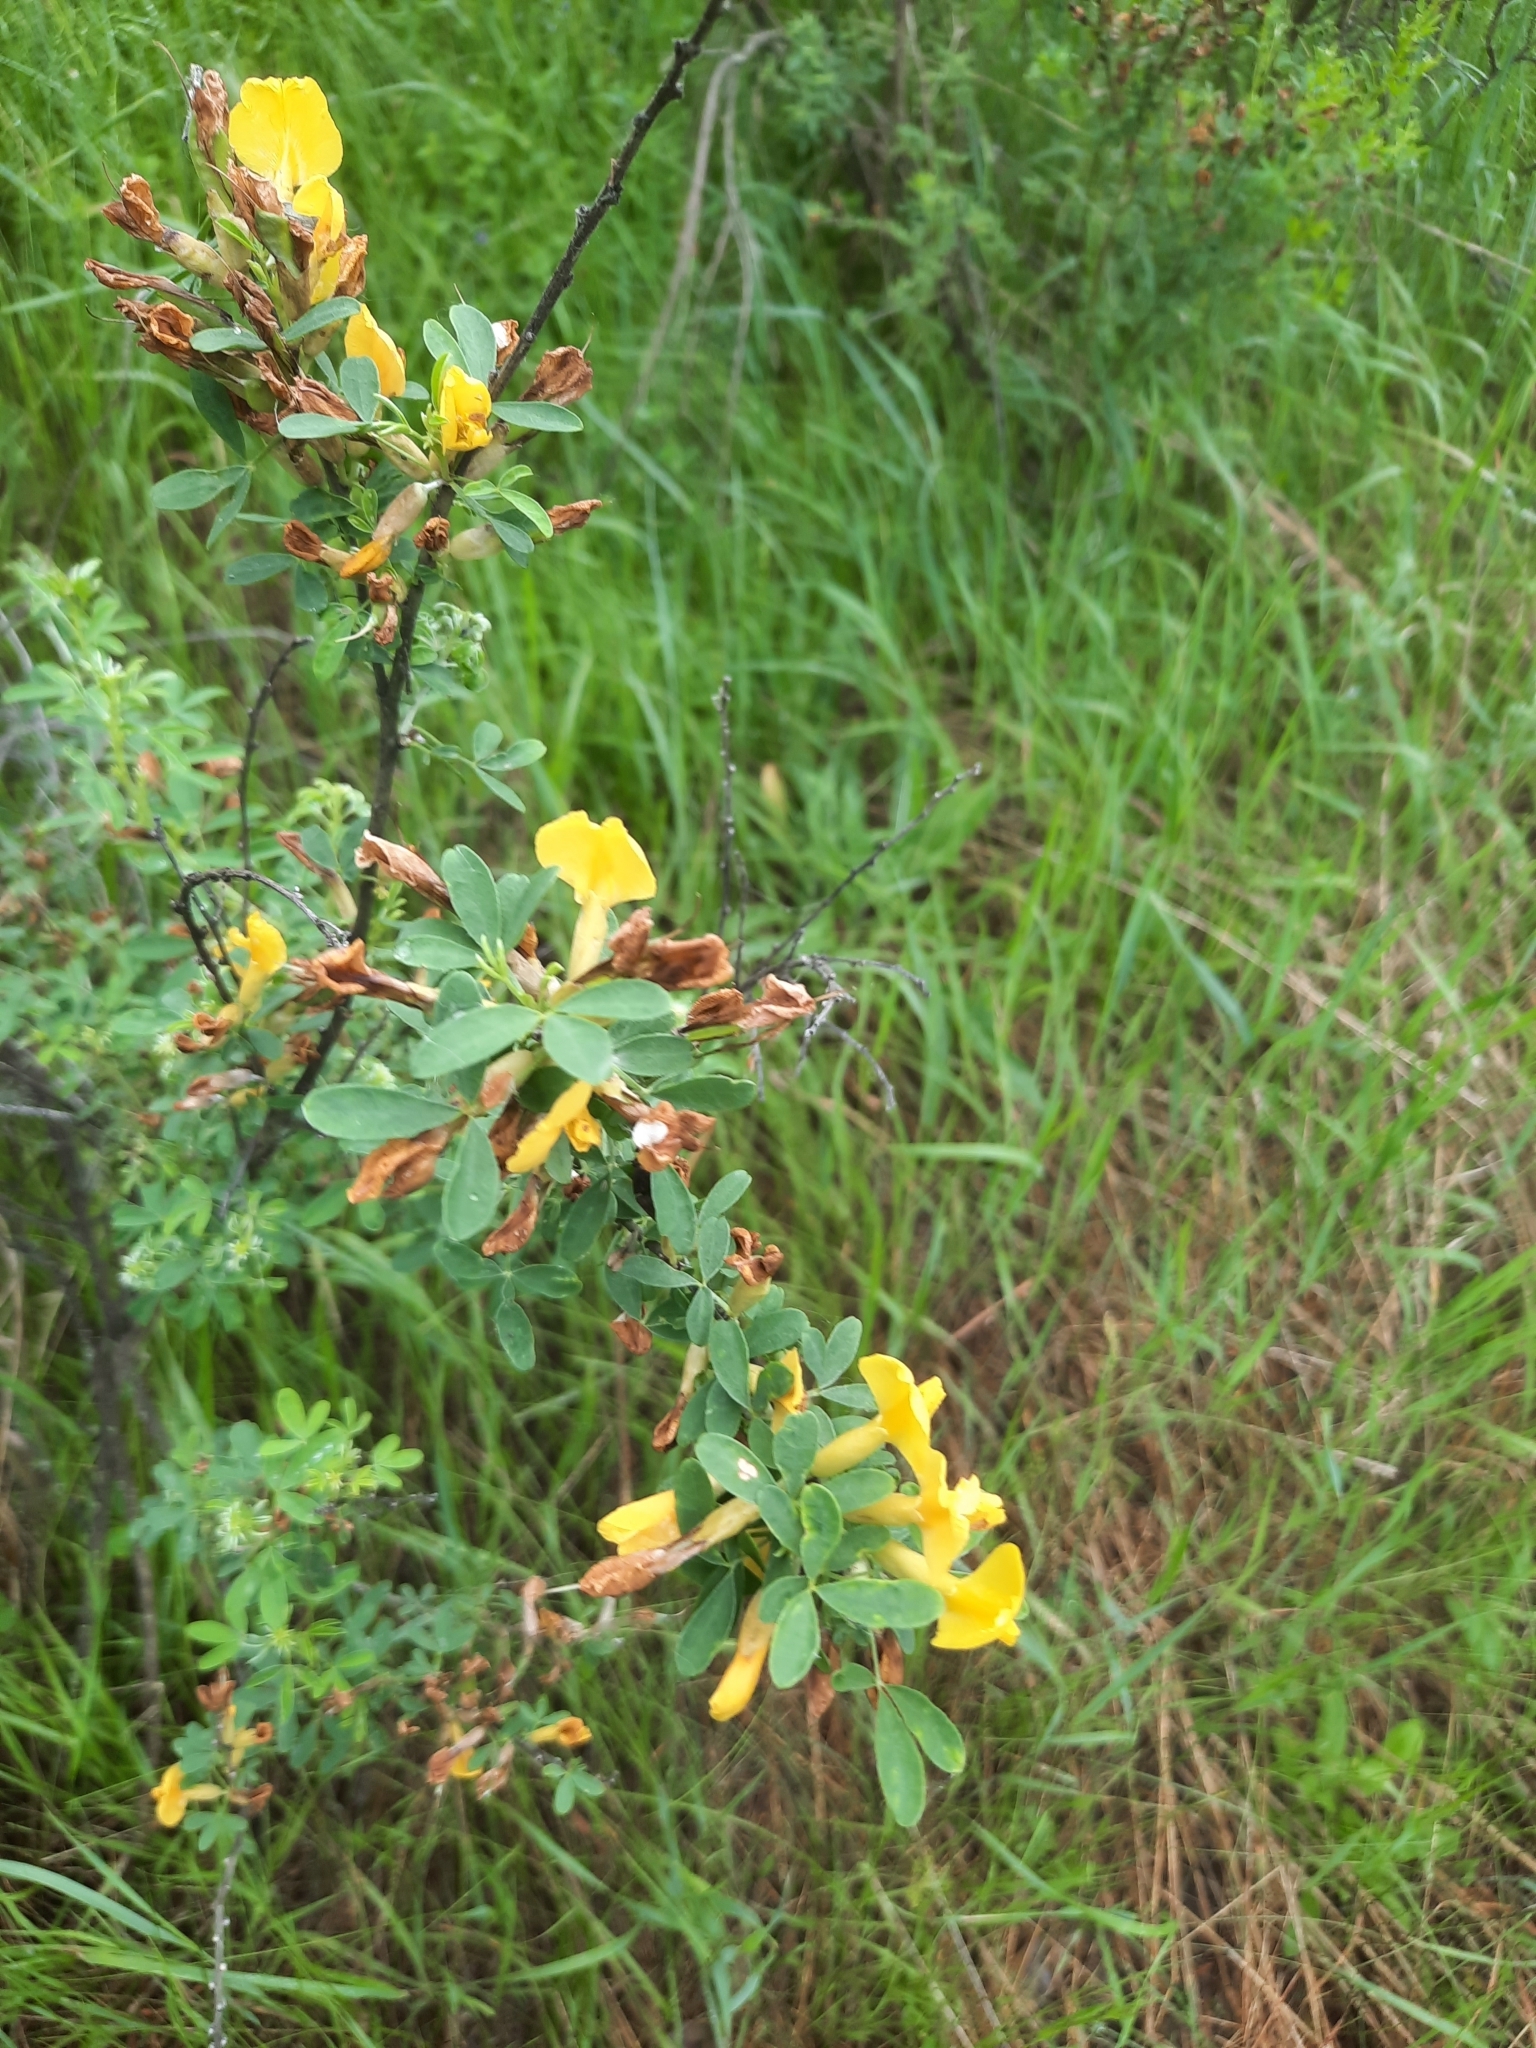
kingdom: Plantae
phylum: Tracheophyta
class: Magnoliopsida
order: Fabales
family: Fabaceae
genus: Chamaecytisus
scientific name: Chamaecytisus ruthenicus
